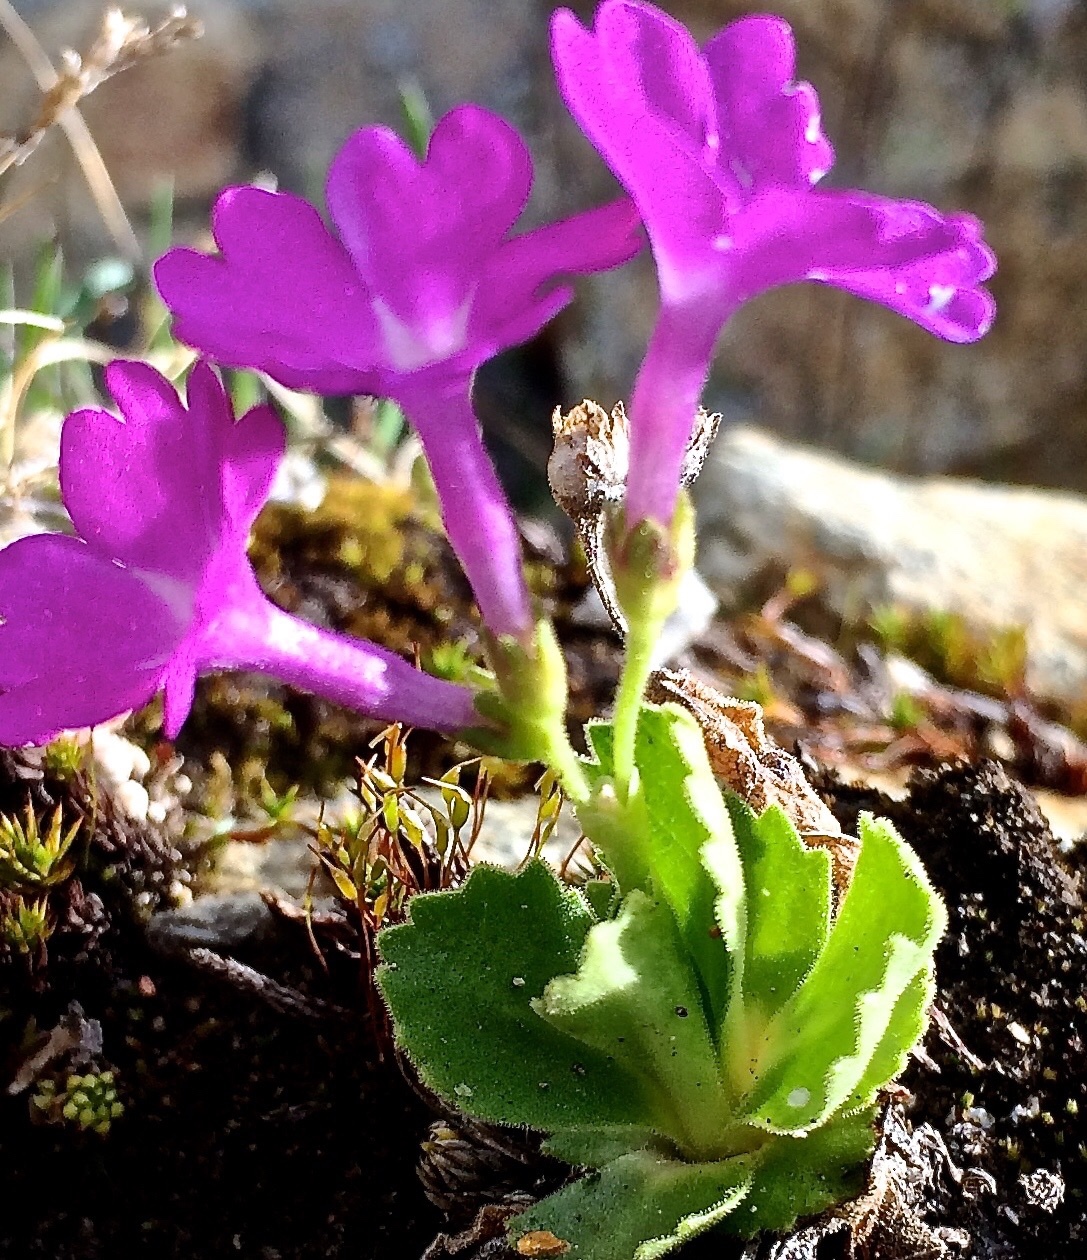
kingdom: Plantae
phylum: Tracheophyta
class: Magnoliopsida
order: Ericales
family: Primulaceae
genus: Primula
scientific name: Primula hirsuta
